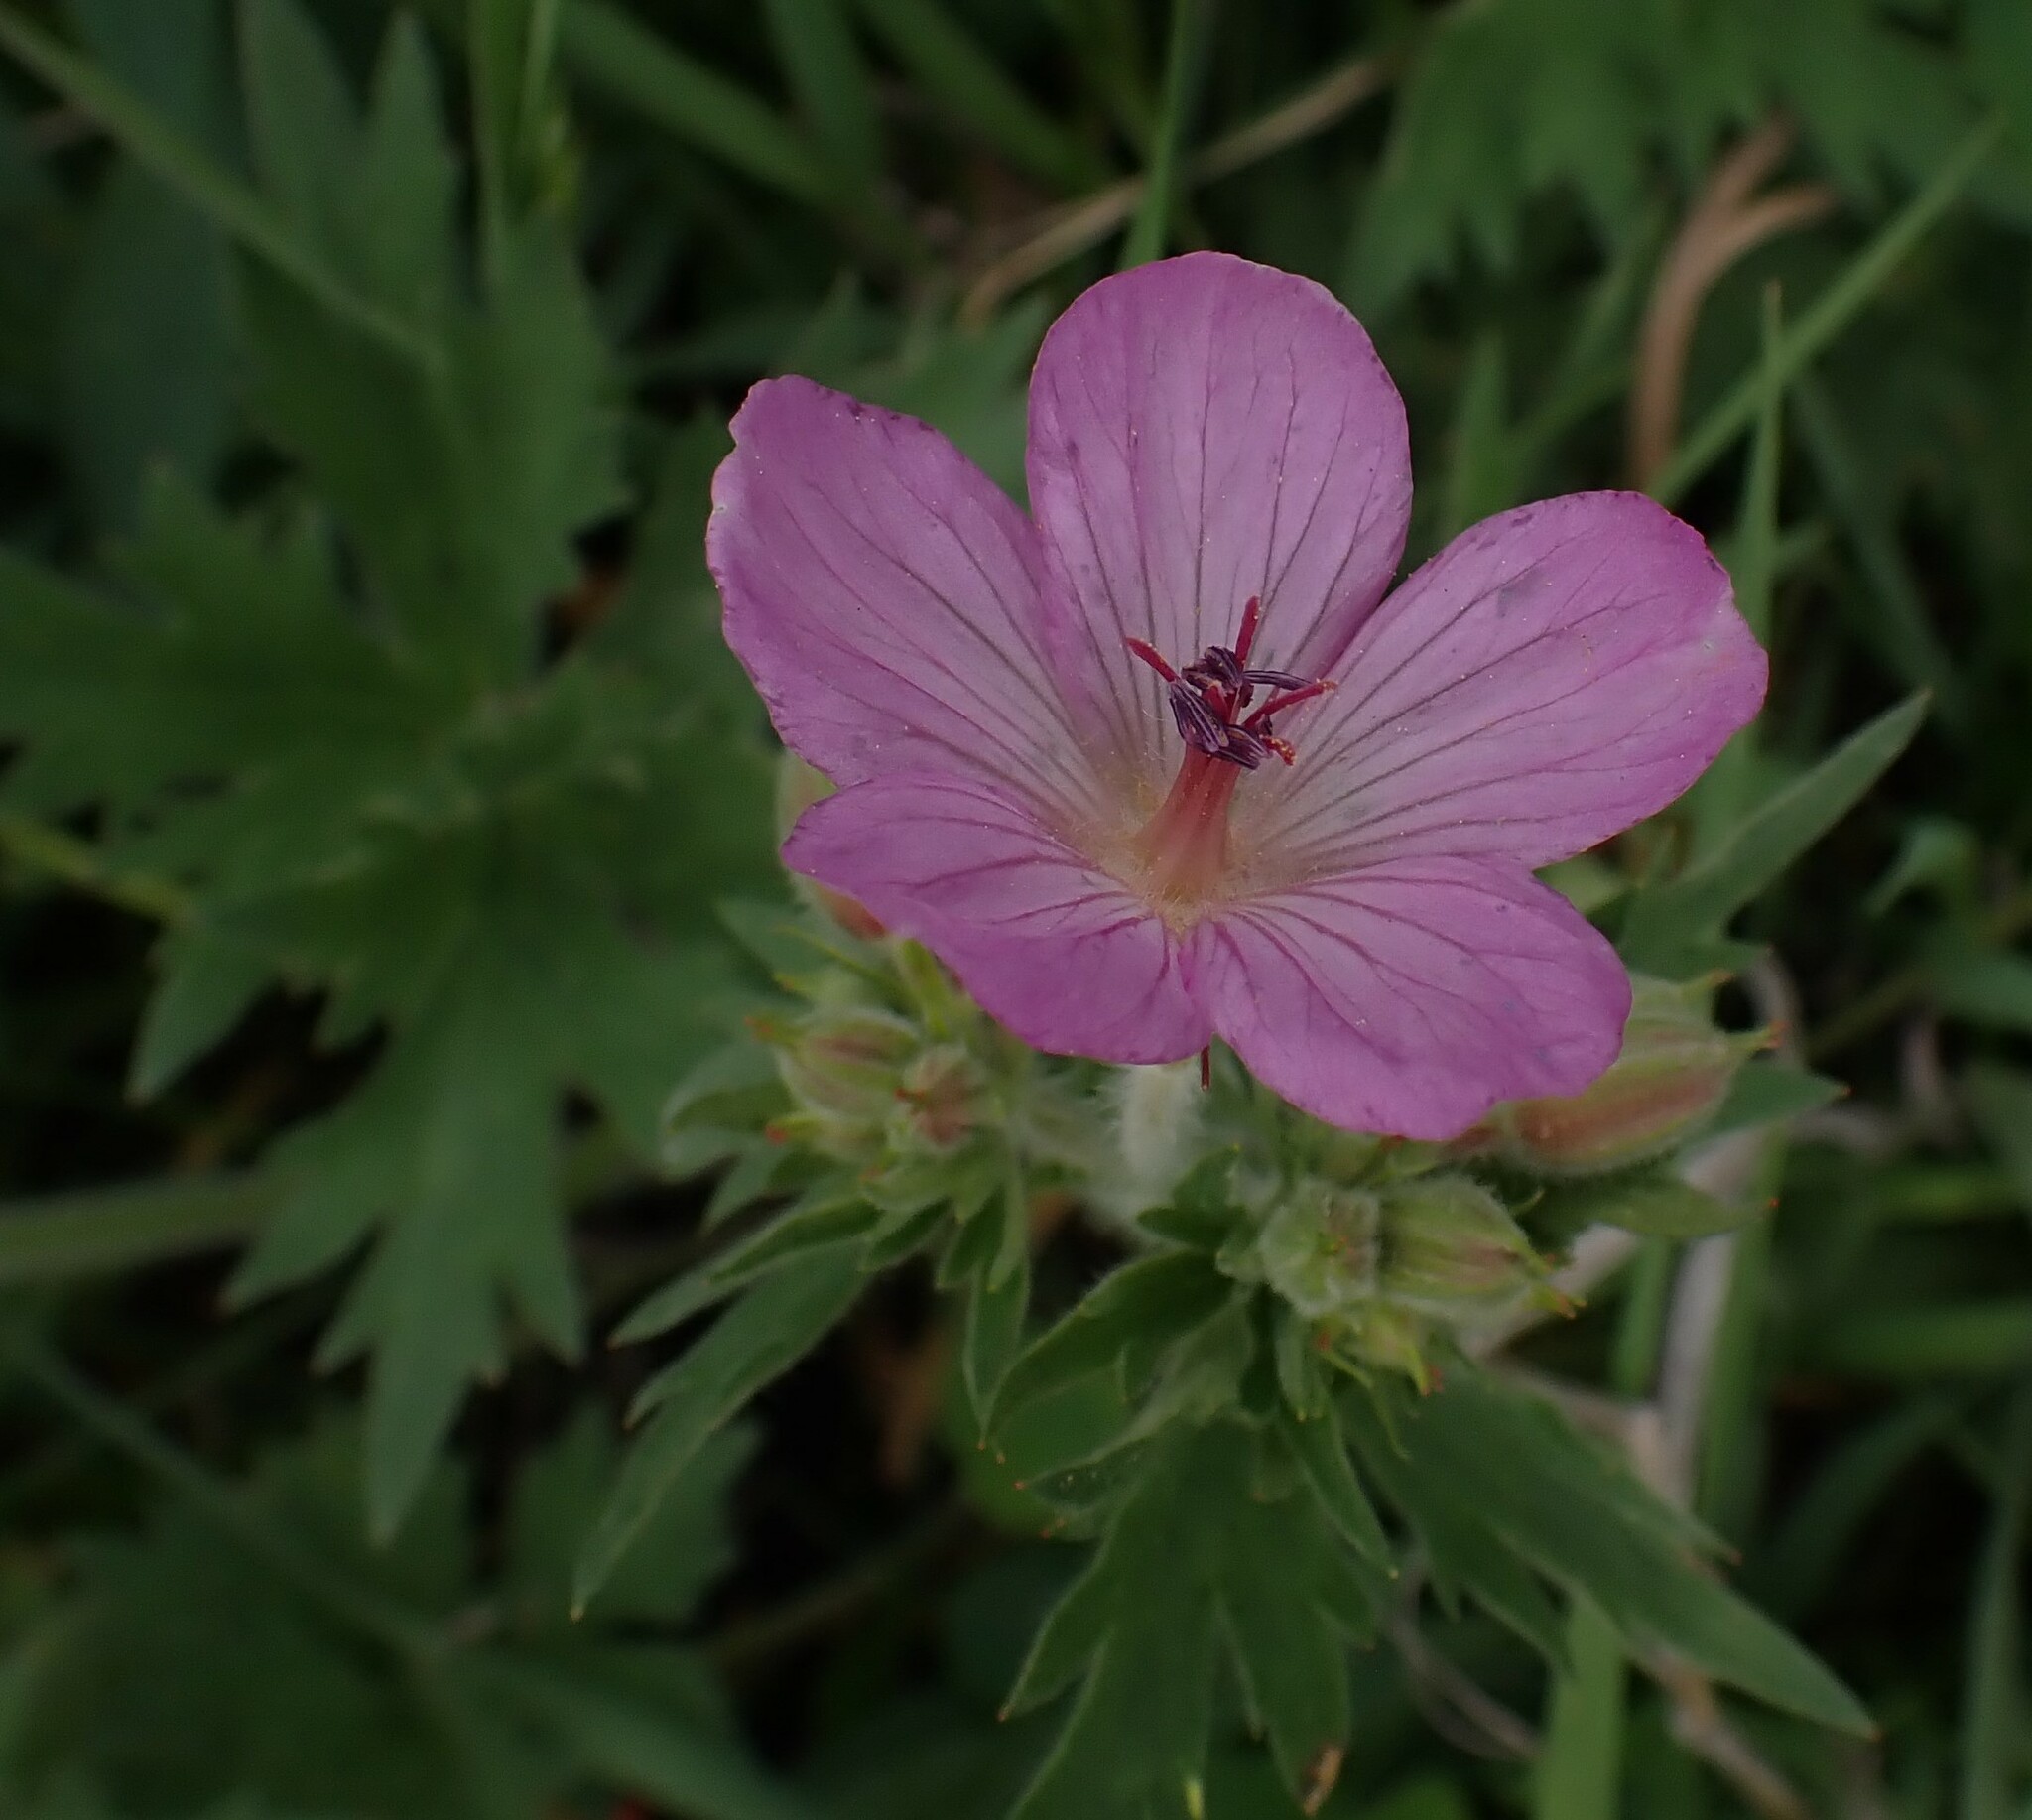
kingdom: Plantae
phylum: Tracheophyta
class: Magnoliopsida
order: Geraniales
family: Geraniaceae
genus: Geranium
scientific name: Geranium viscosissimum
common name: Purple geranium
